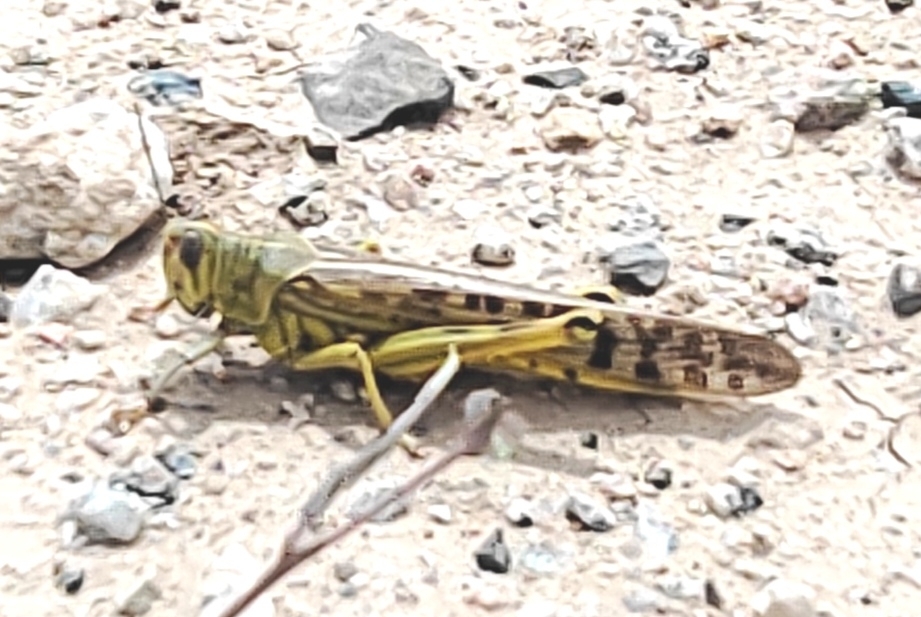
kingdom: Animalia
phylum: Arthropoda
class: Insecta
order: Orthoptera
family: Acrididae
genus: Schistocerca
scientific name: Schistocerca gregaria
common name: Desert locust
